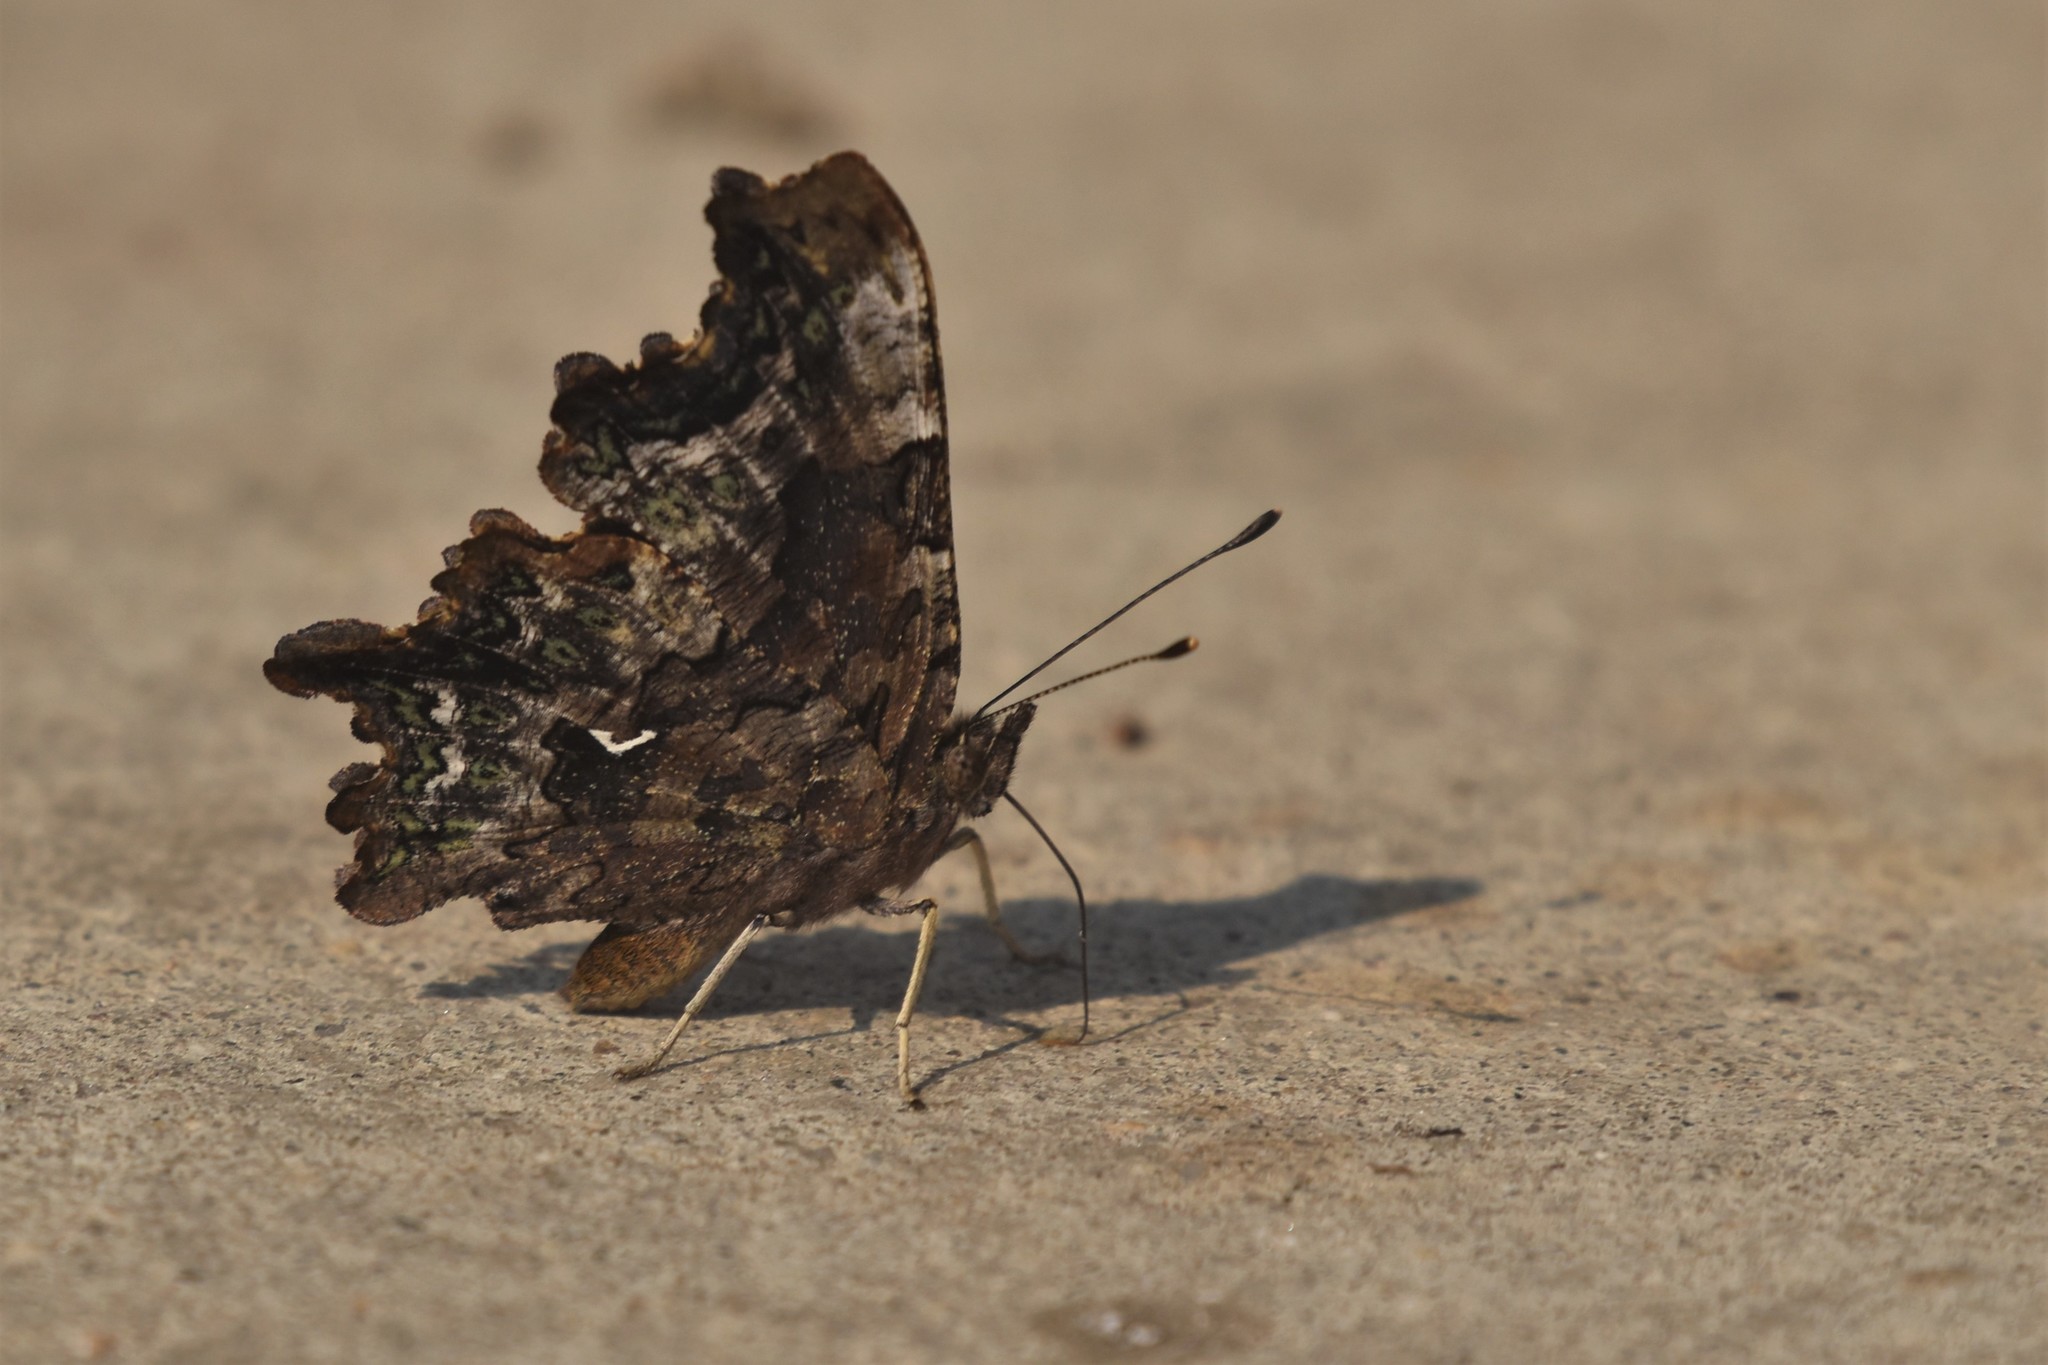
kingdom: Animalia
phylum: Arthropoda
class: Insecta
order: Lepidoptera
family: Nymphalidae
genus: Polygonia
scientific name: Polygonia faunus
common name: Green comma
